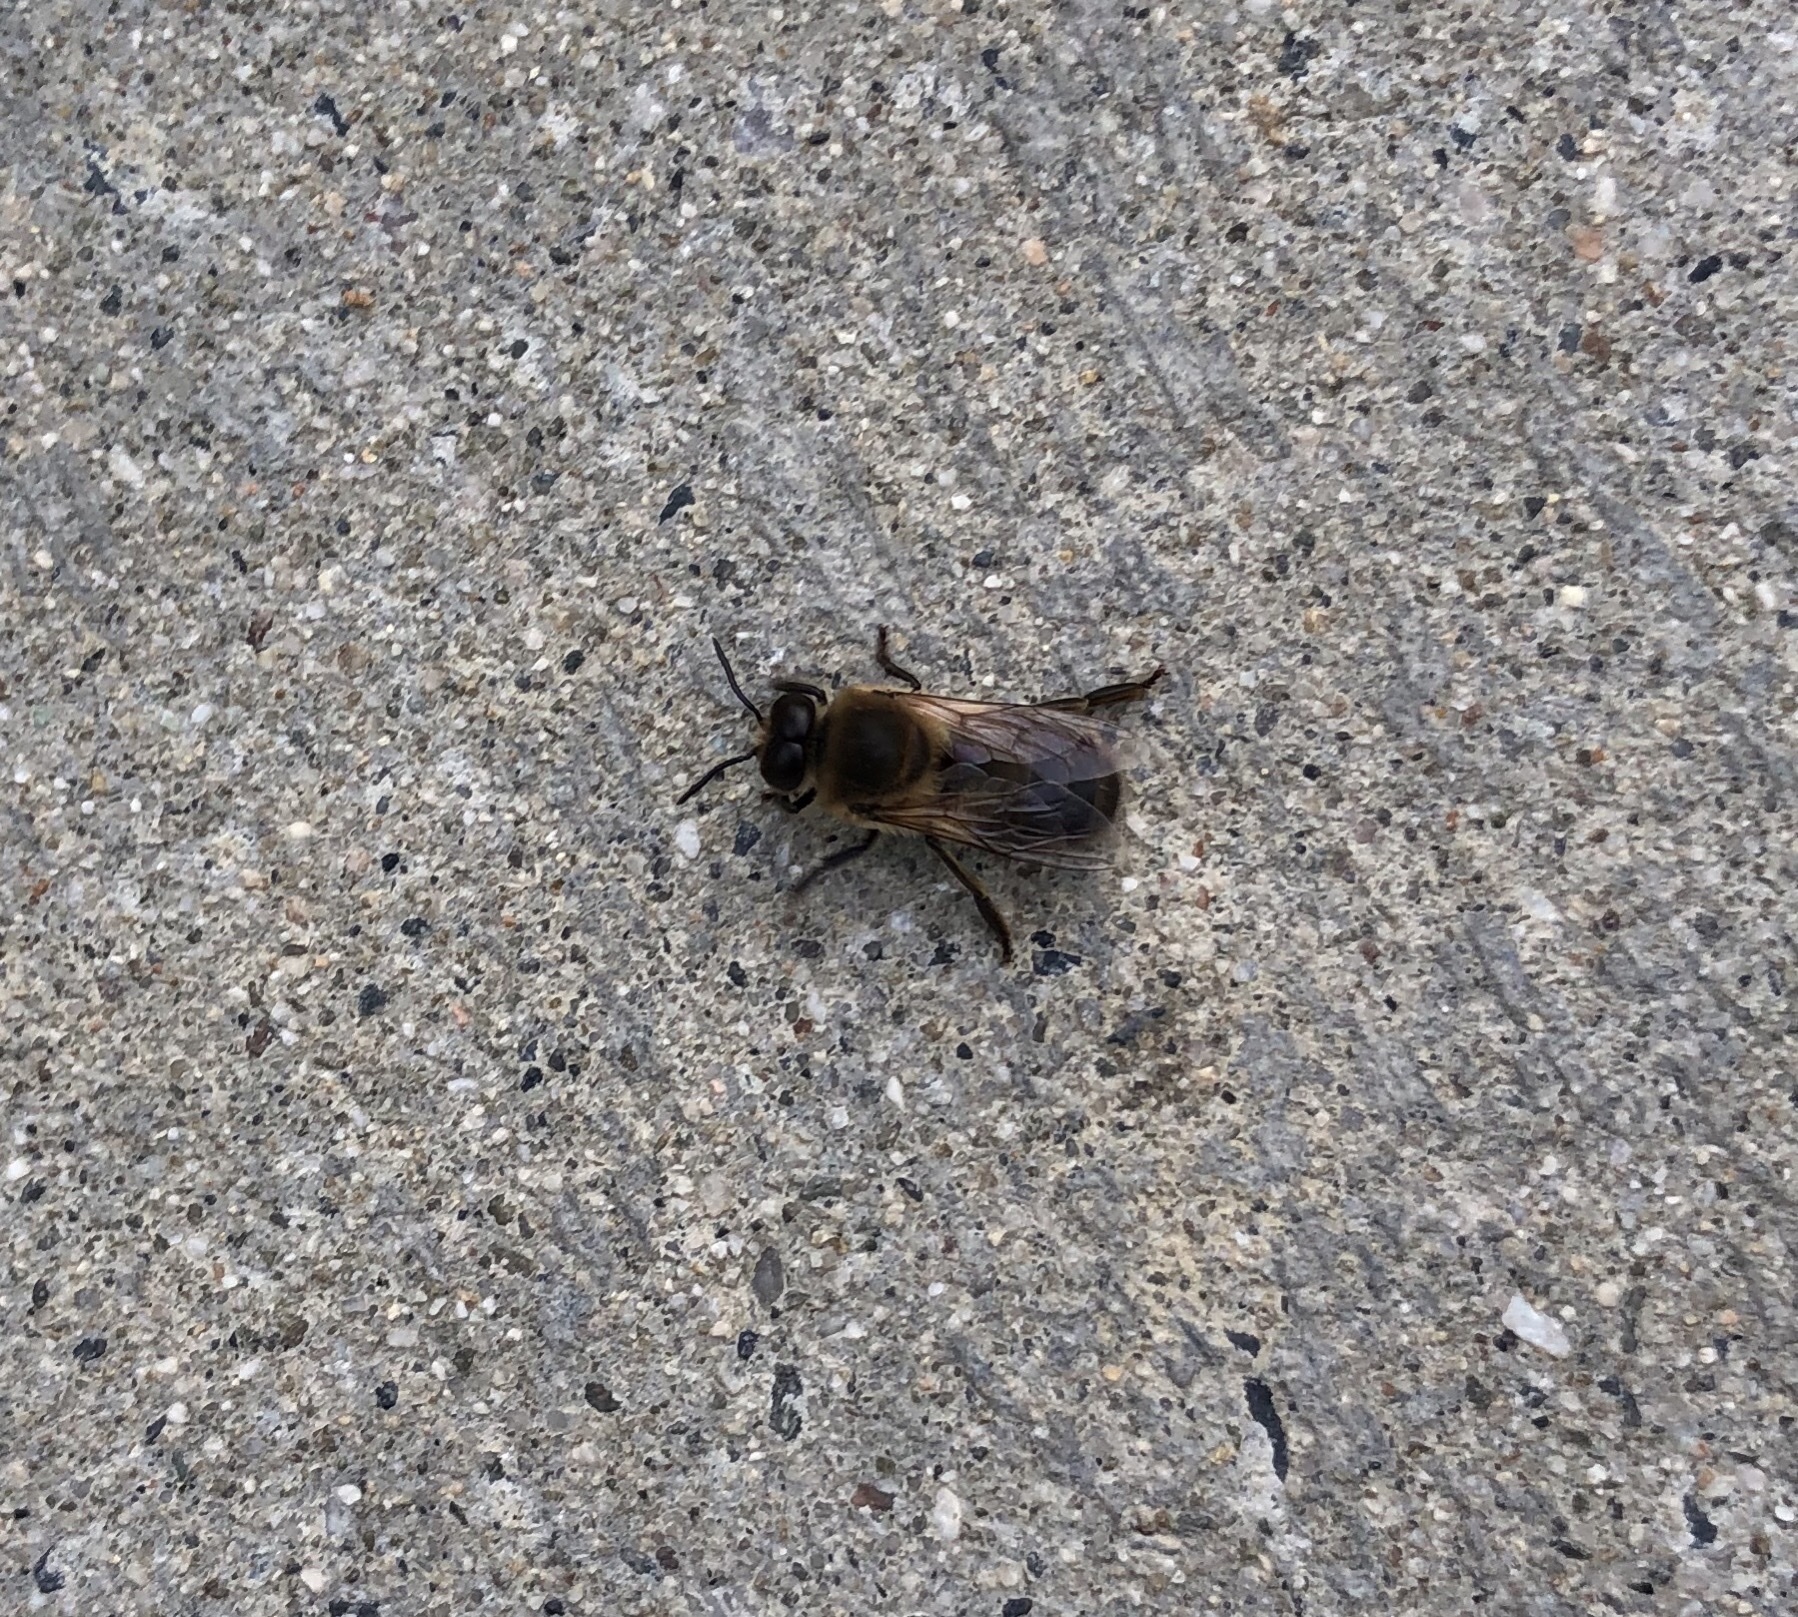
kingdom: Animalia
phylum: Arthropoda
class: Insecta
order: Hymenoptera
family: Apidae
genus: Apis
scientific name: Apis mellifera
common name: Honey bee
